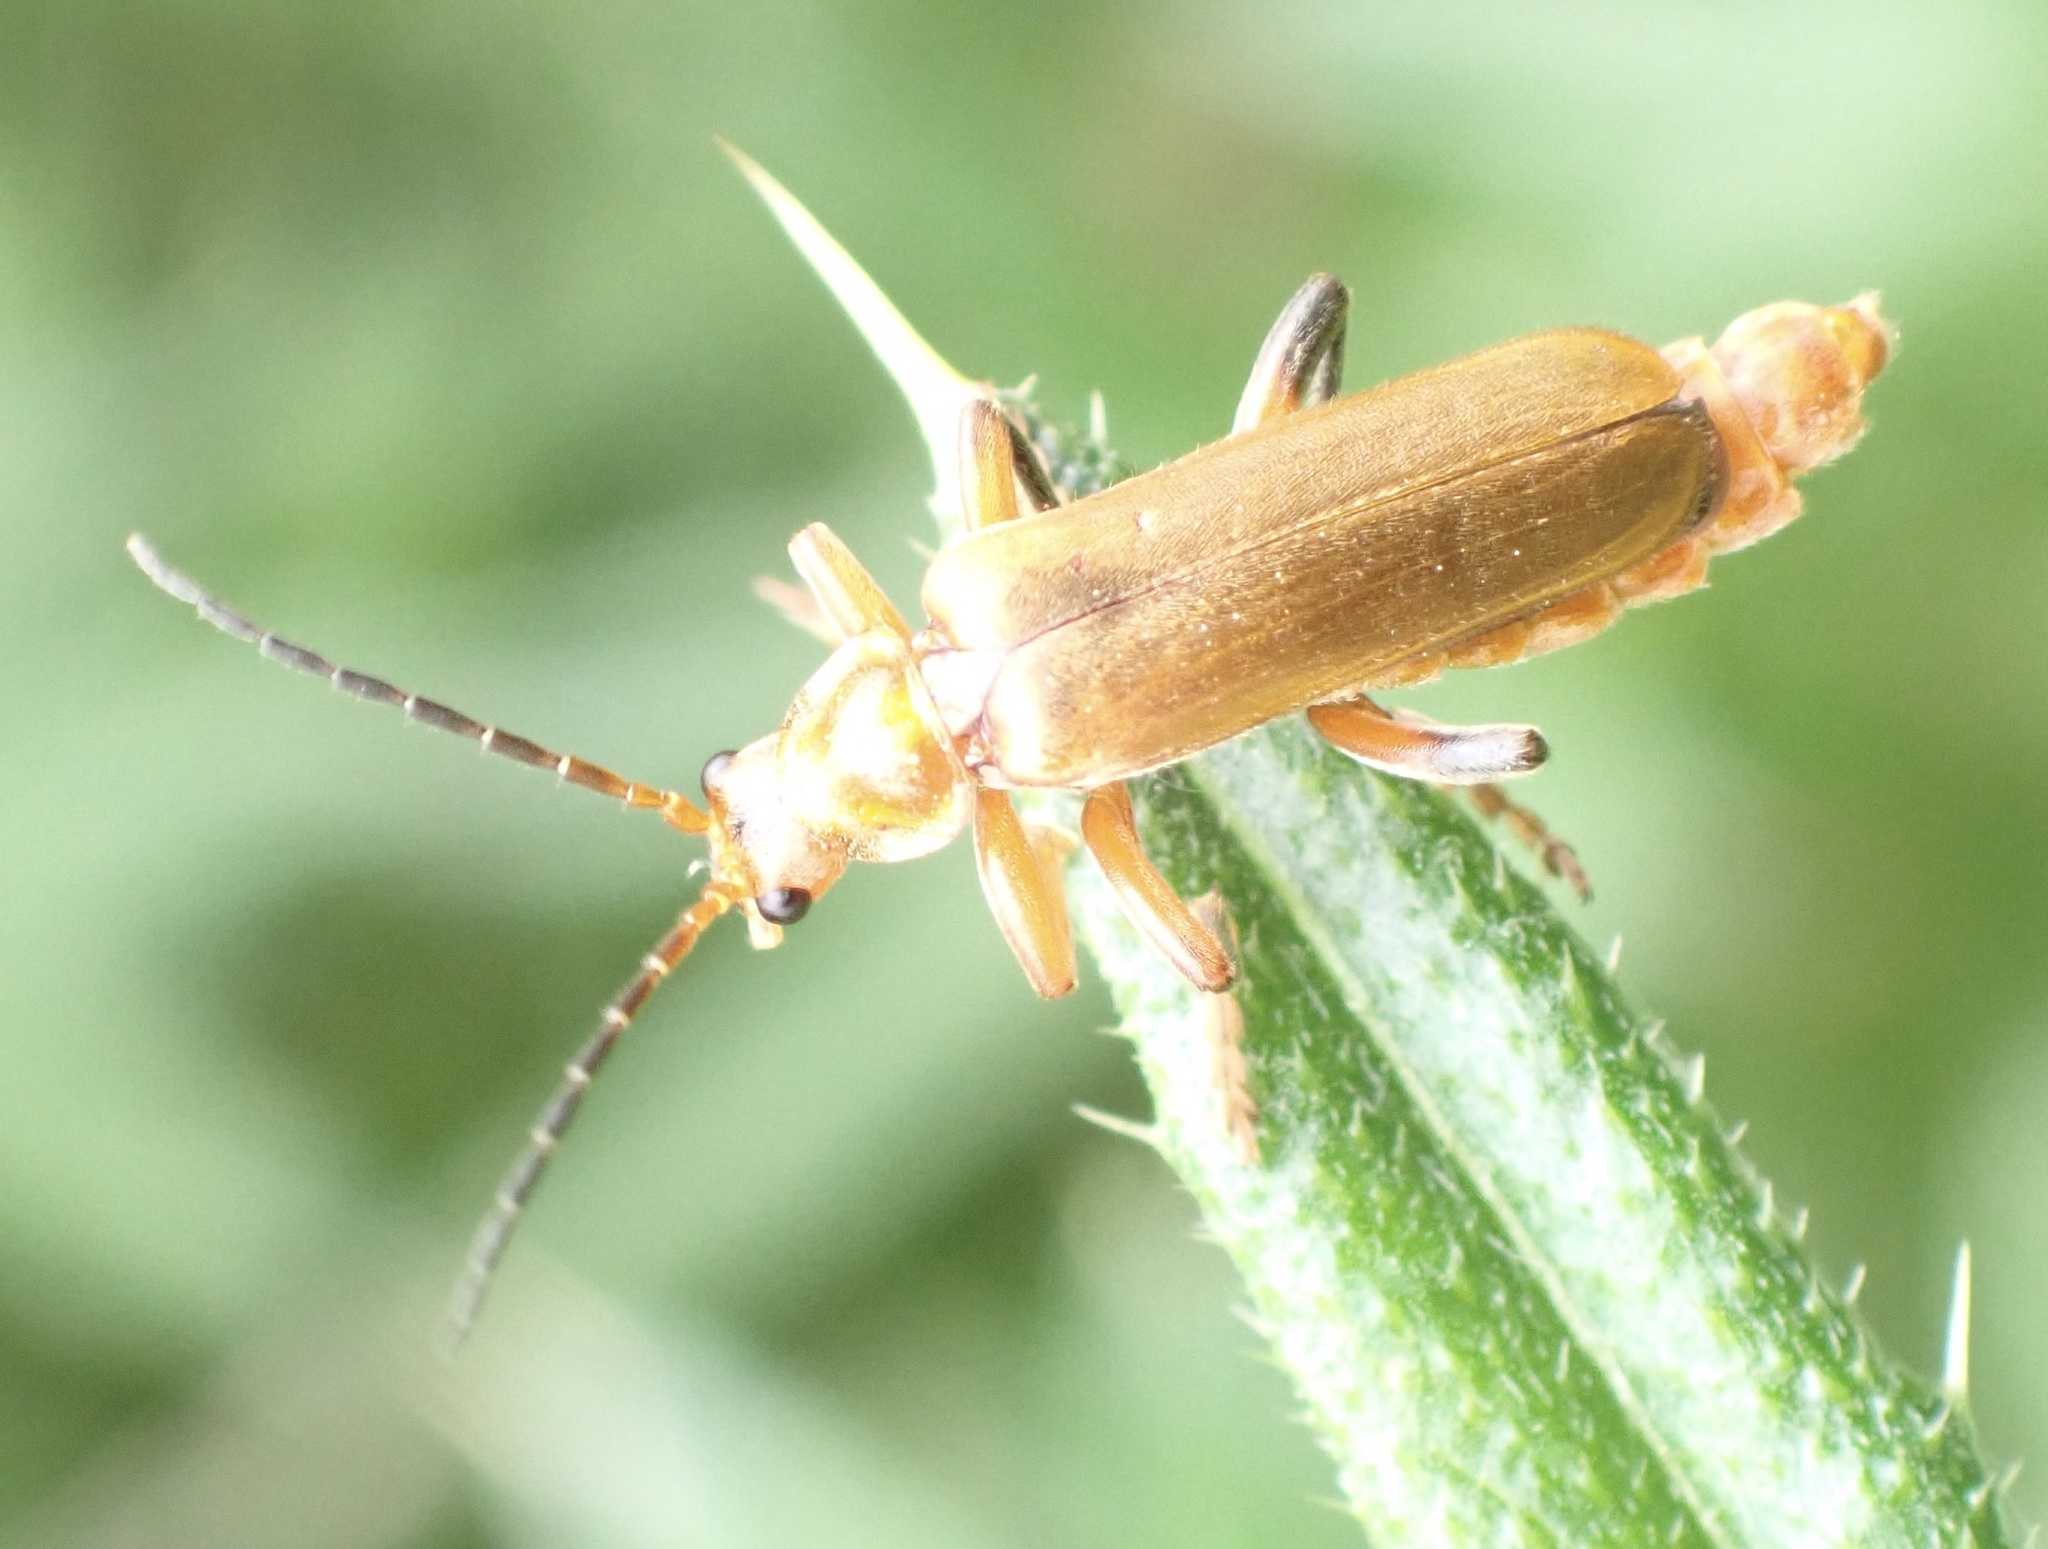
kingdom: Animalia
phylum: Arthropoda
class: Insecta
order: Coleoptera
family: Cantharidae
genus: Cantharis
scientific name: Cantharis livida
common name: Livid soldier beetle
